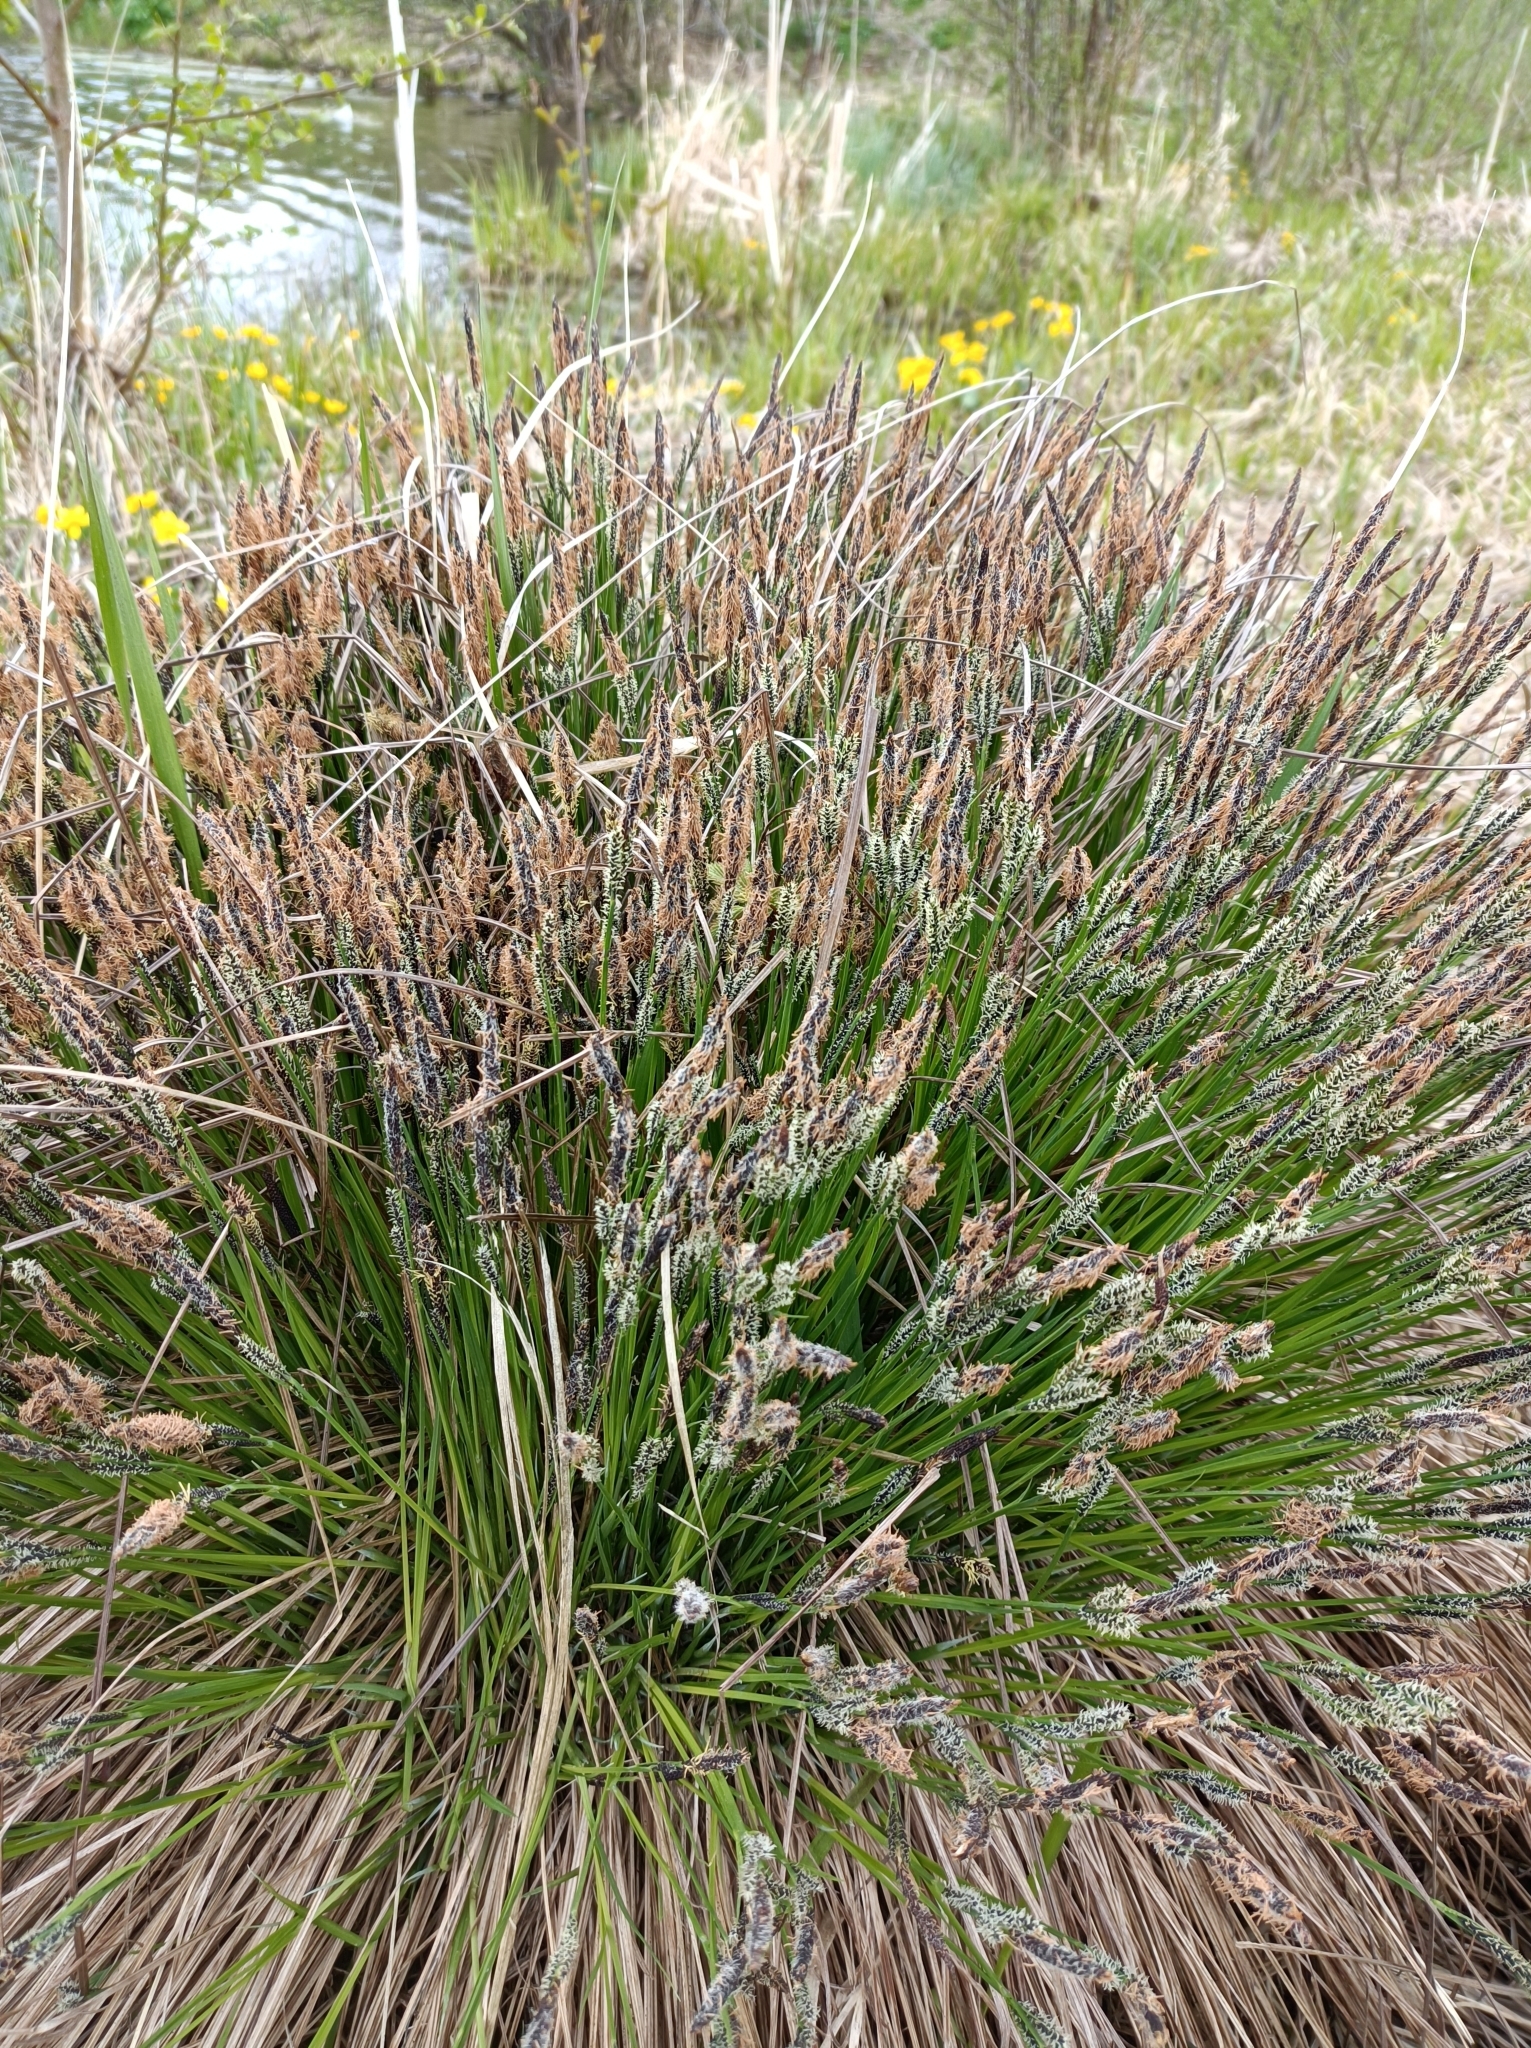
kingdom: Plantae
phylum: Tracheophyta
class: Liliopsida
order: Poales
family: Cyperaceae
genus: Carex
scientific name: Carex cespitosa
